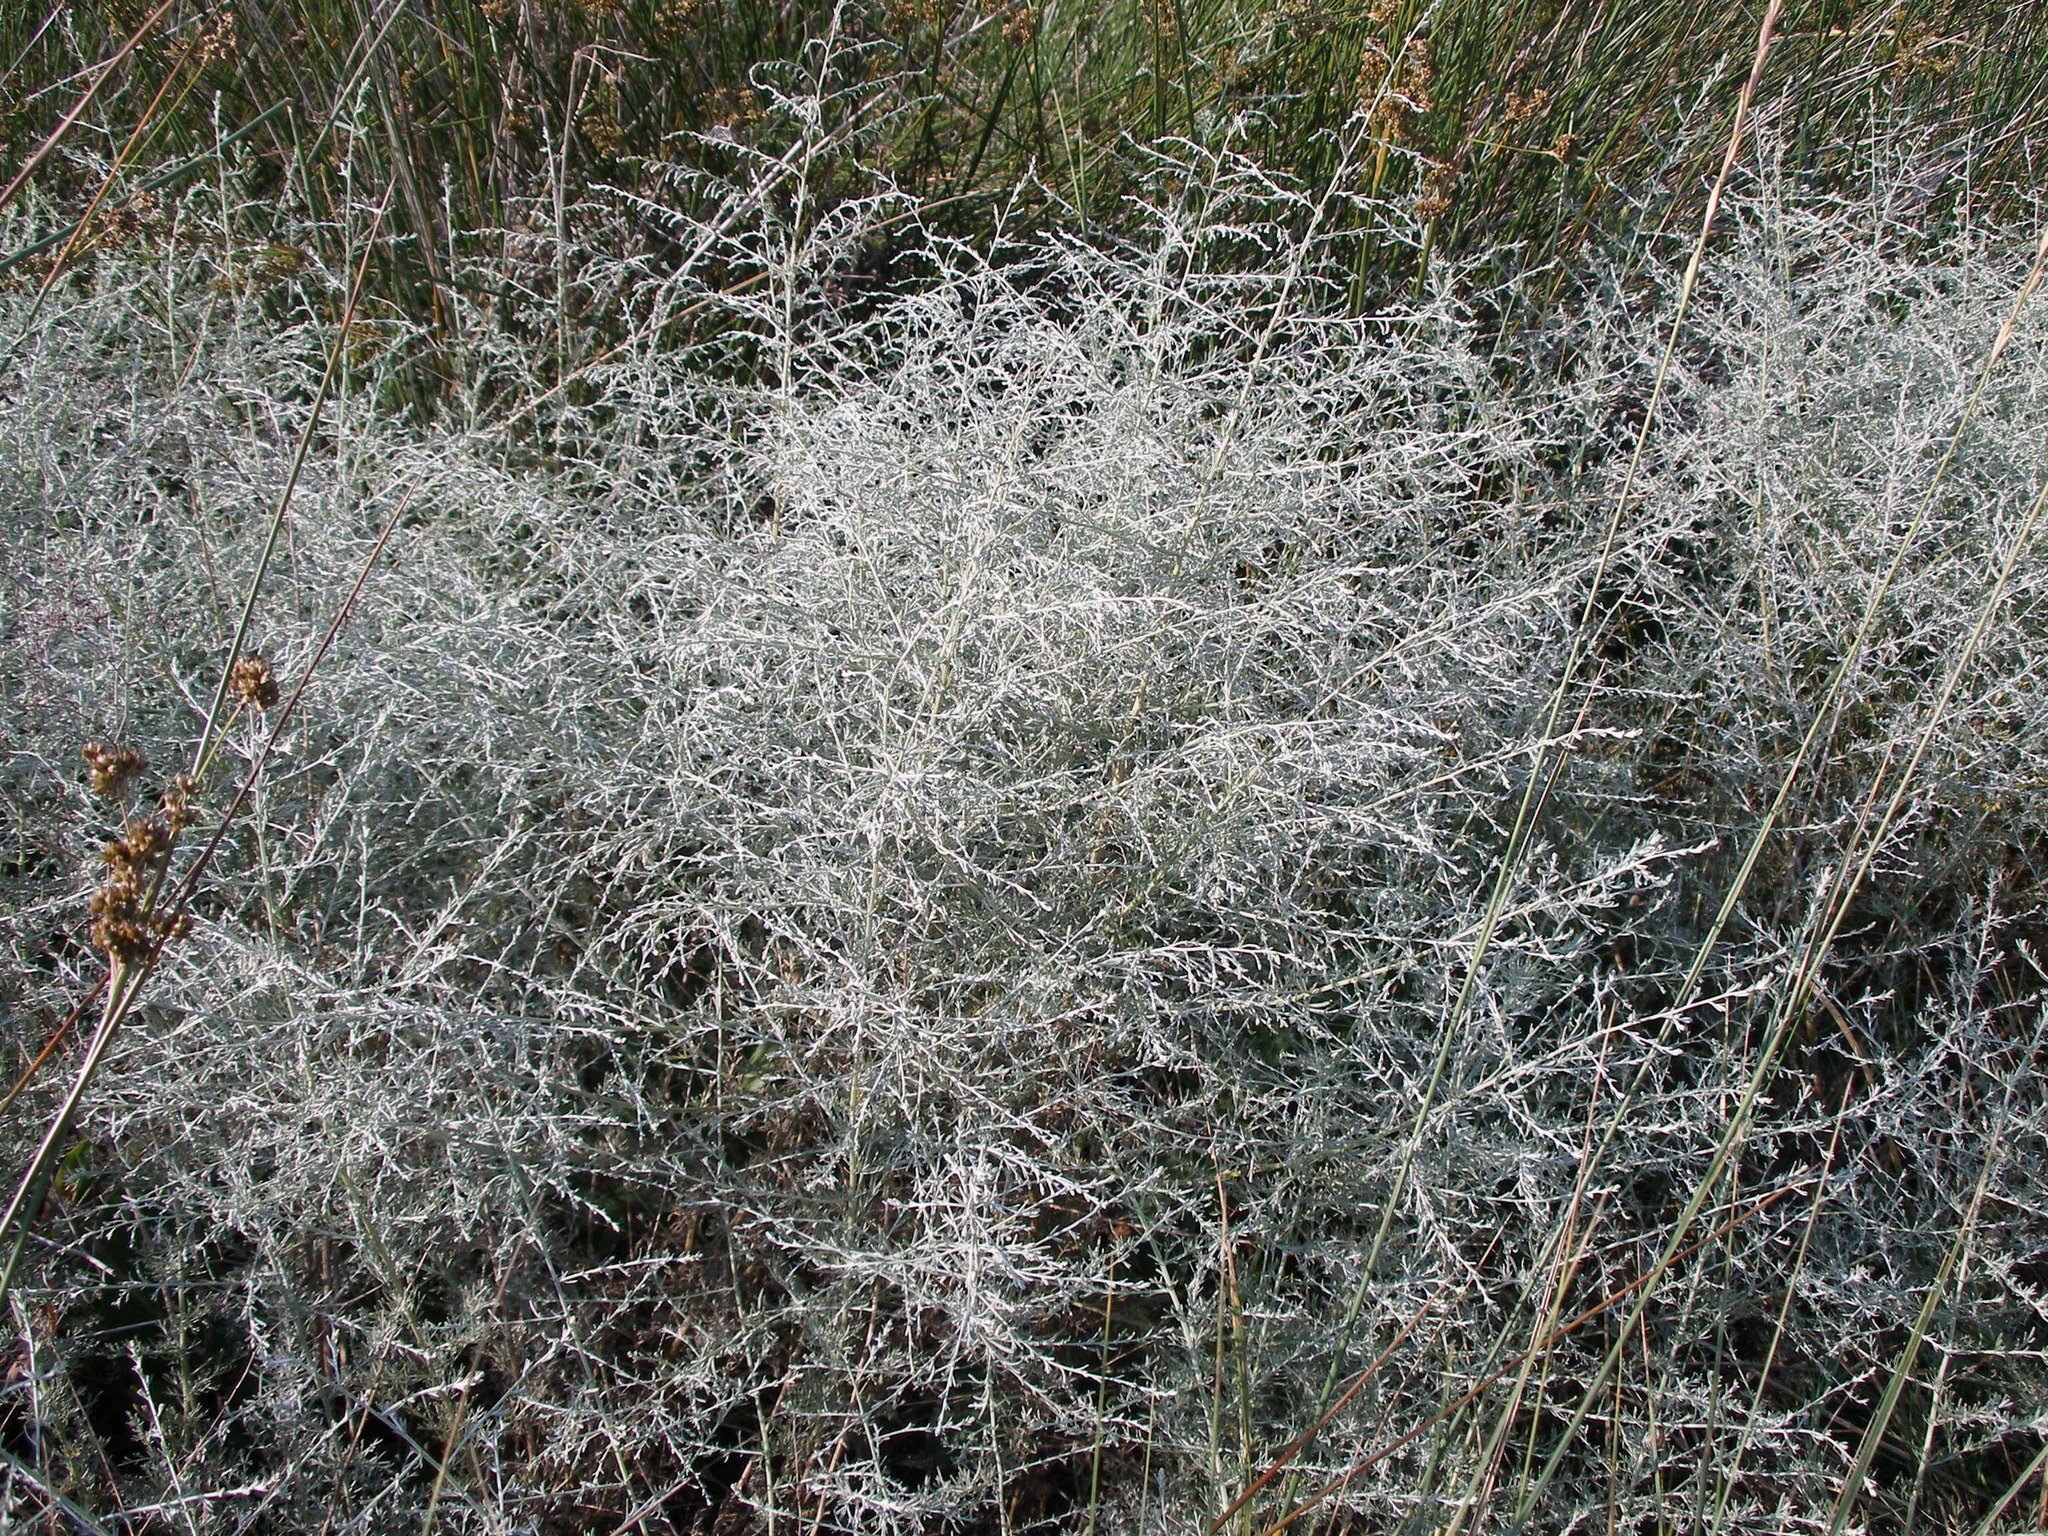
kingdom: Plantae
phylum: Tracheophyta
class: Magnoliopsida
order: Asterales
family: Asteraceae
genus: Artemisia
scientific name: Artemisia santonicum
